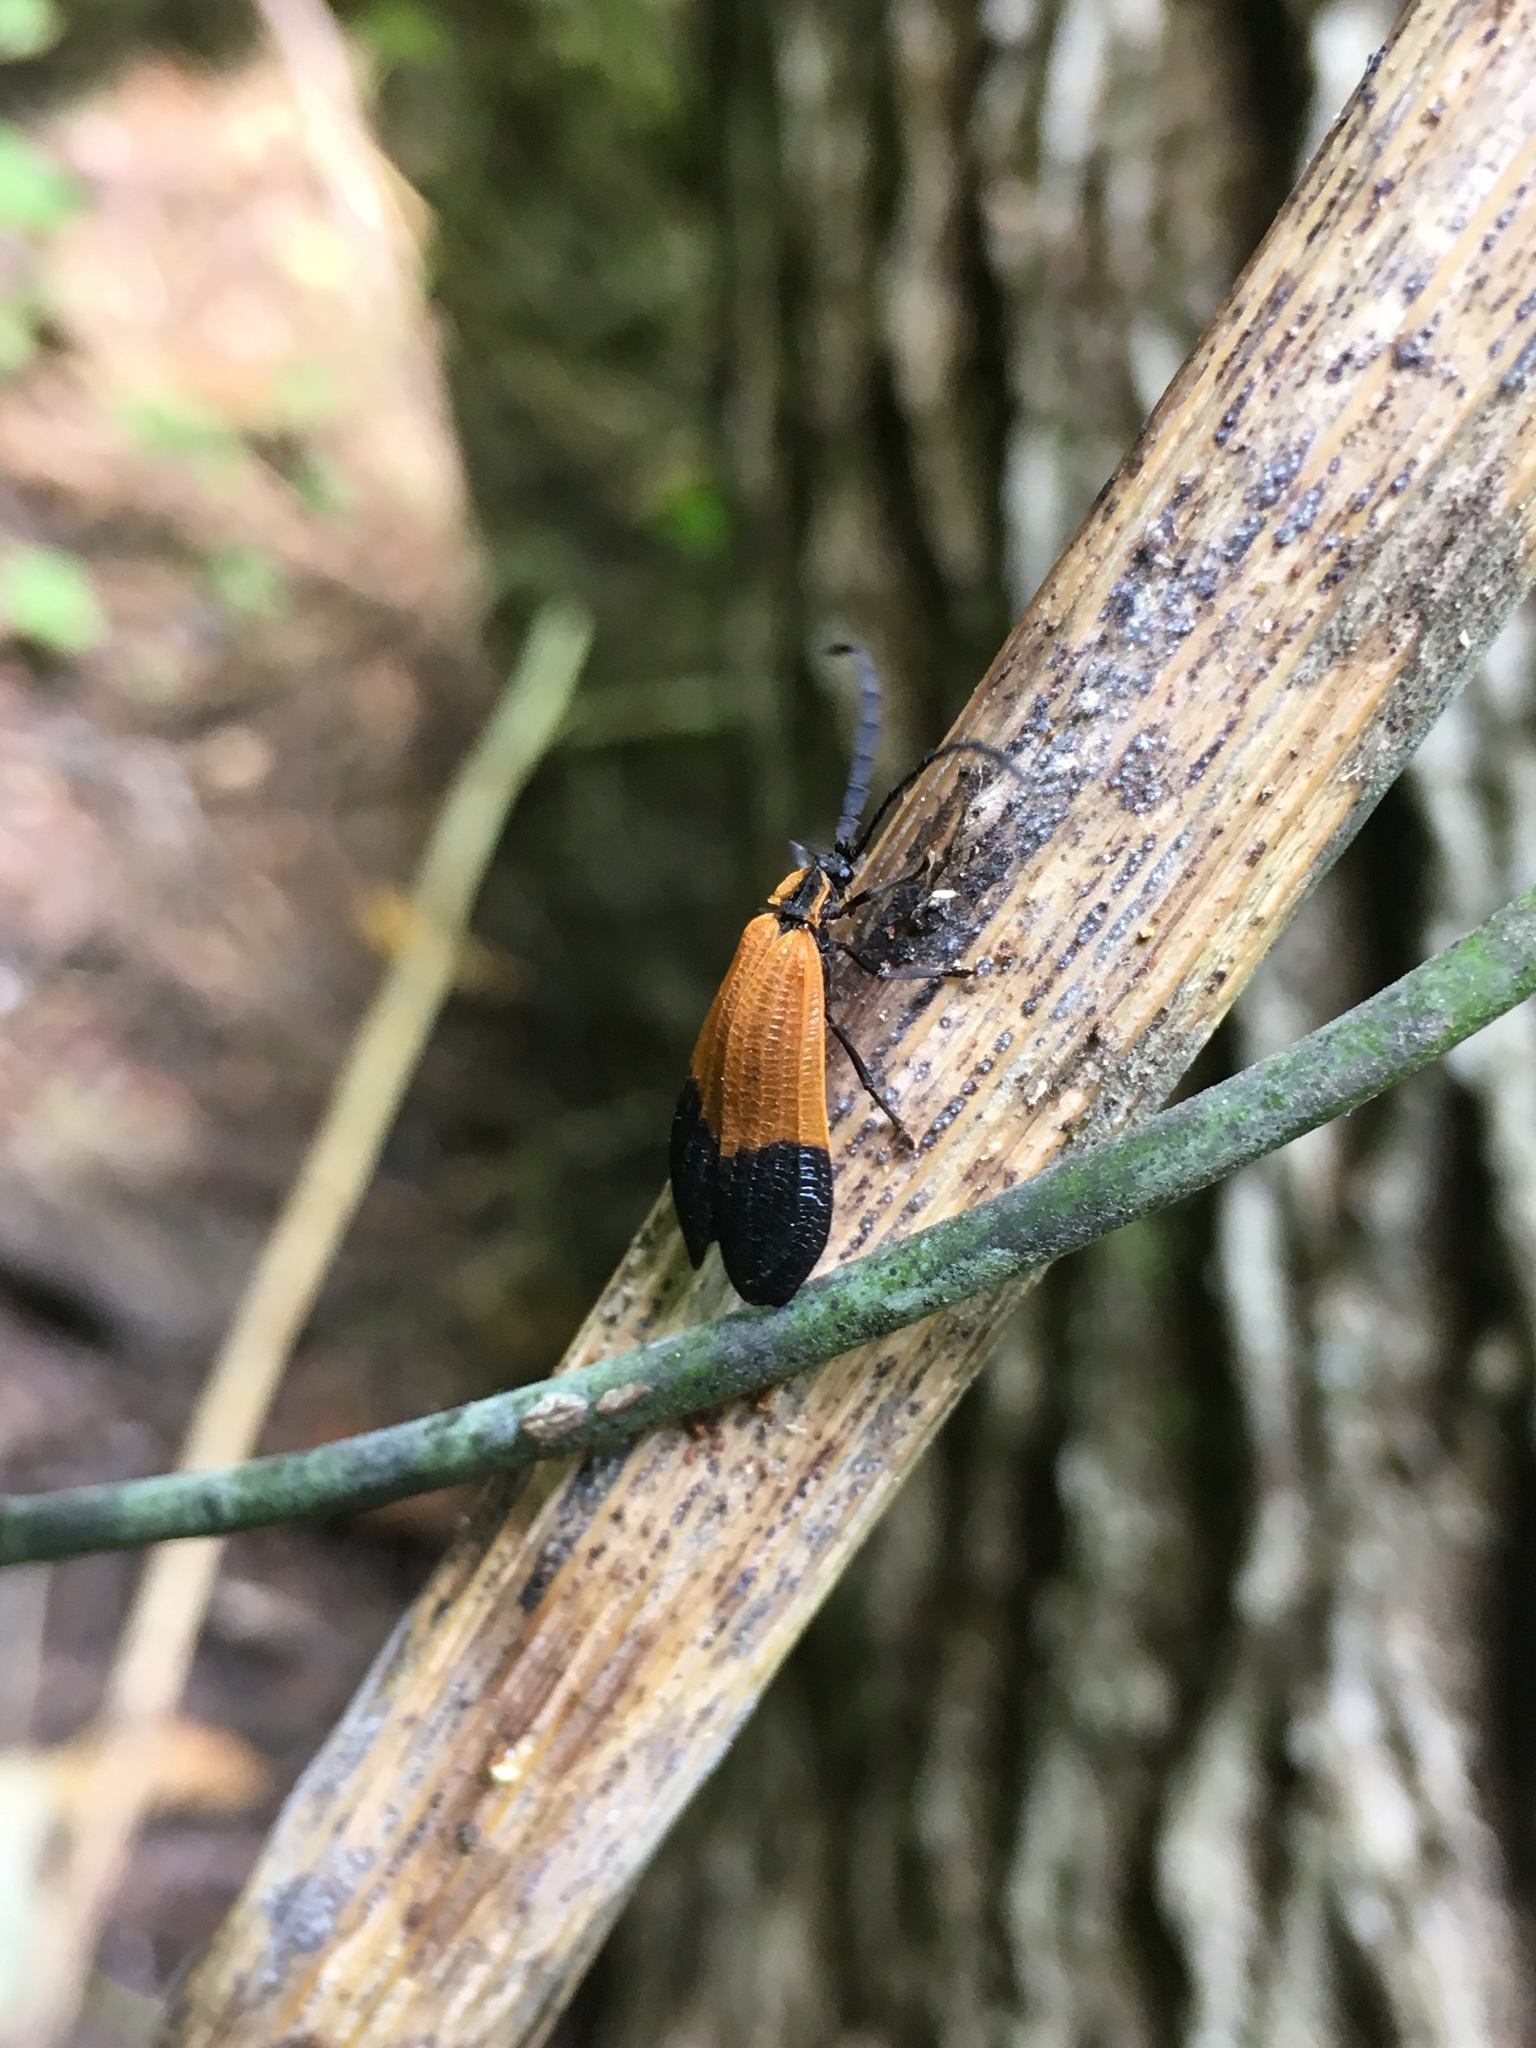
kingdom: Animalia
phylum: Arthropoda
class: Insecta
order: Coleoptera
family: Lycidae
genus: Calopteron
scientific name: Calopteron terminale
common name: End band net-winged beetle
